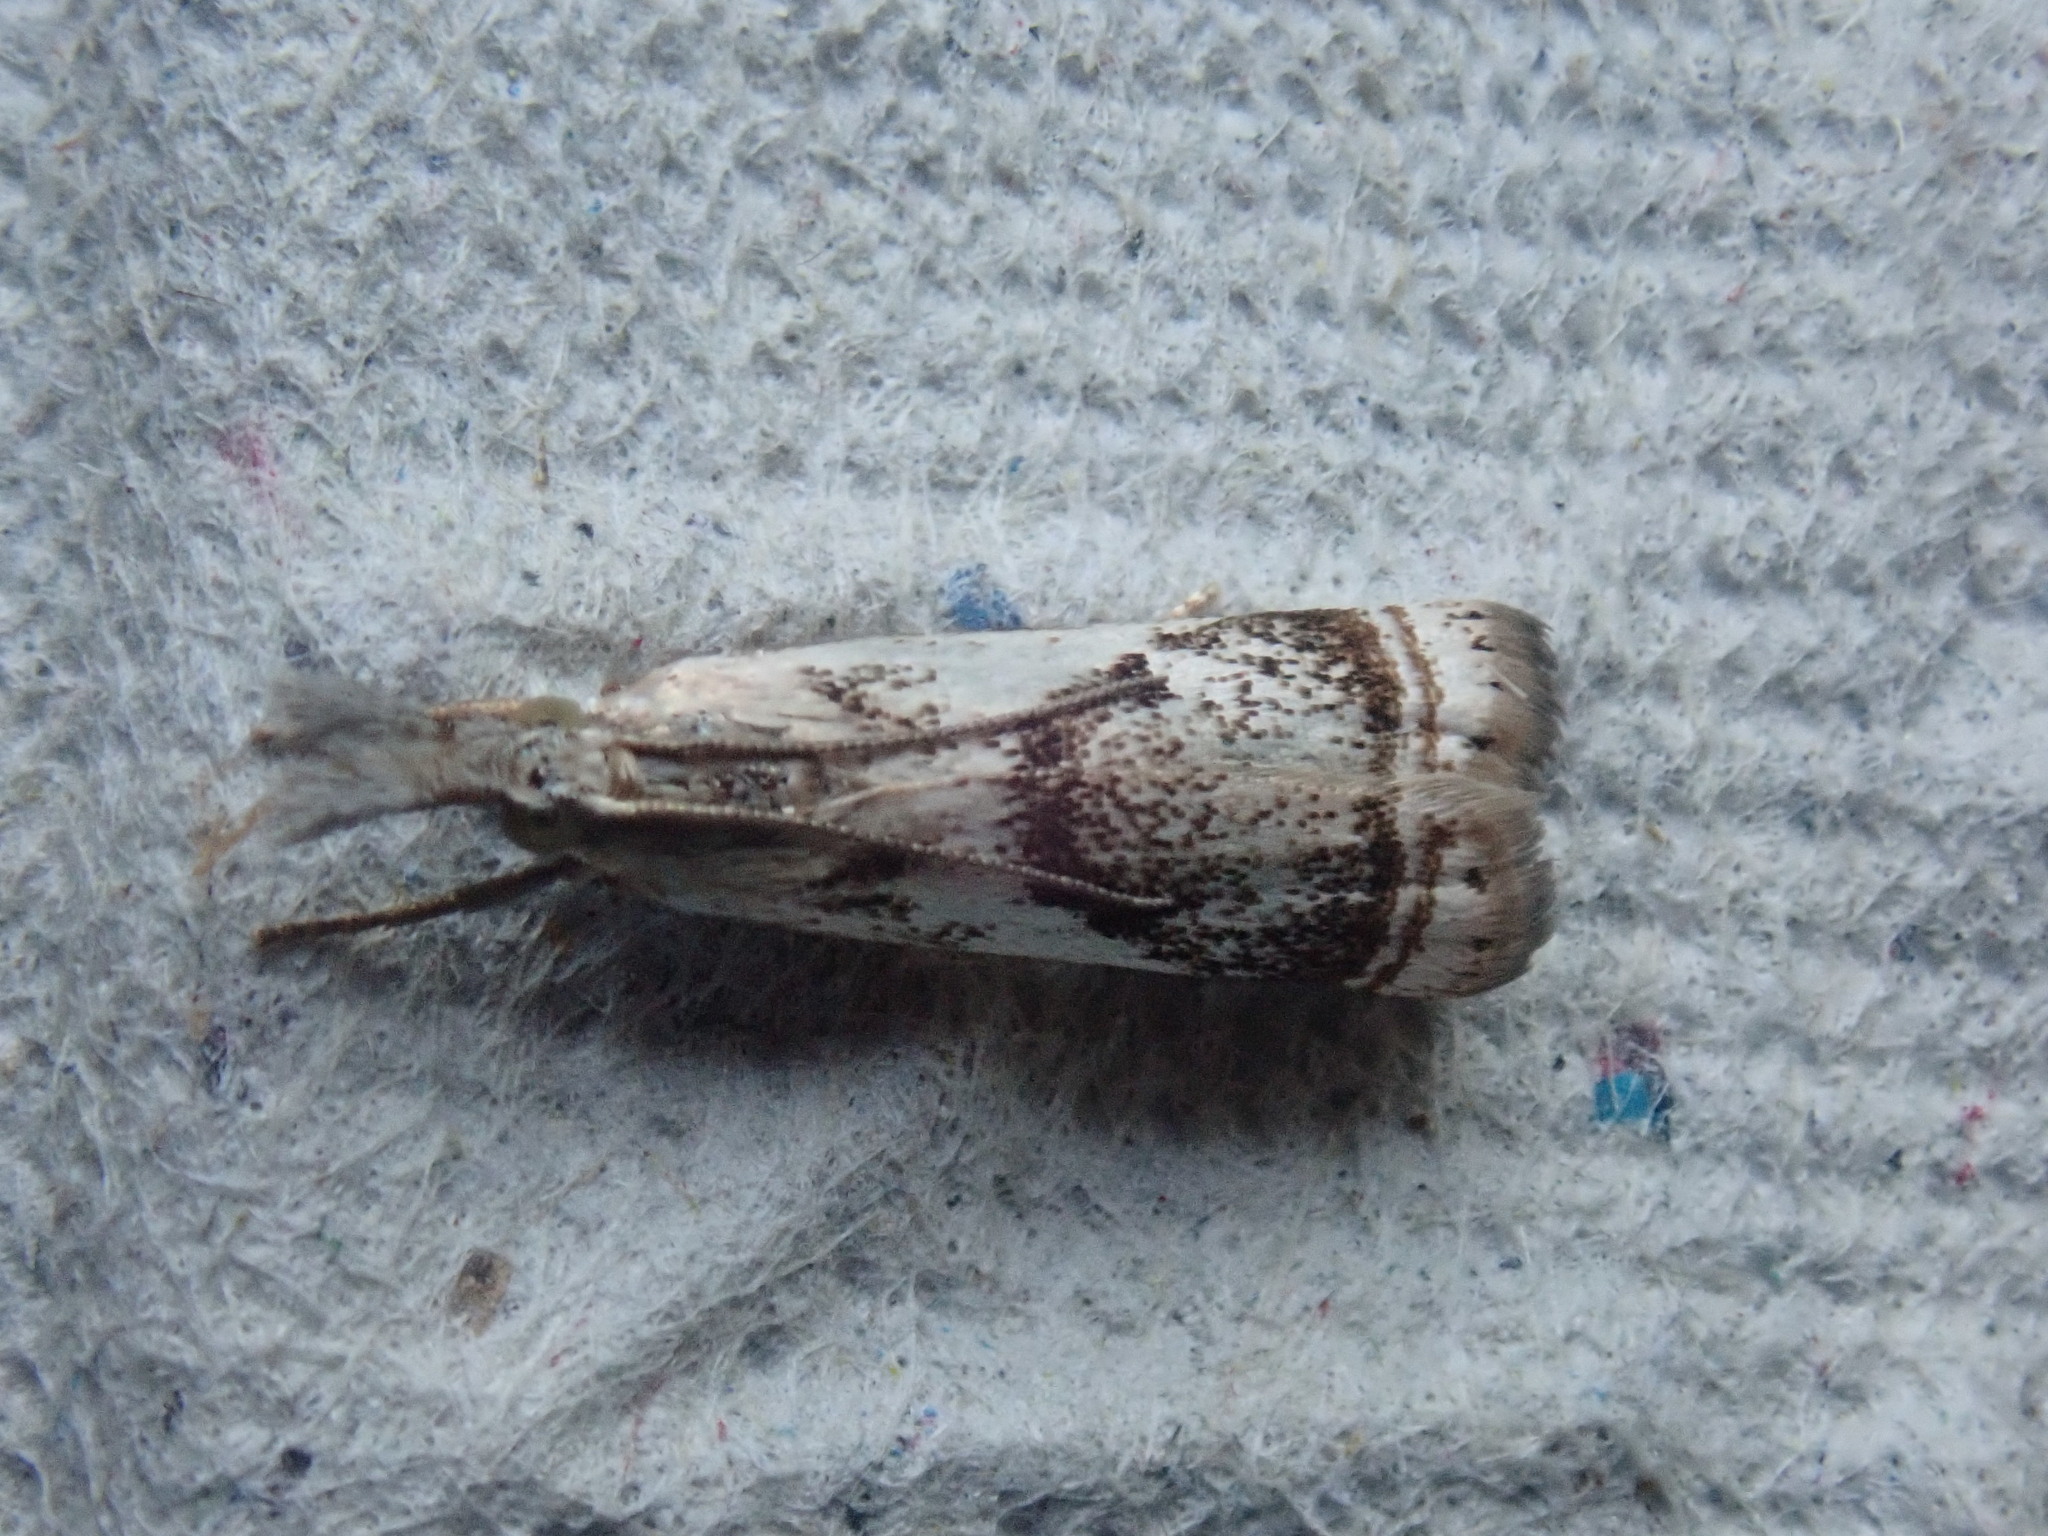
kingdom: Animalia
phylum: Arthropoda
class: Insecta
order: Lepidoptera
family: Crambidae
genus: Microcrambus
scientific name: Microcrambus elegans
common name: Elegant grass-veneer
